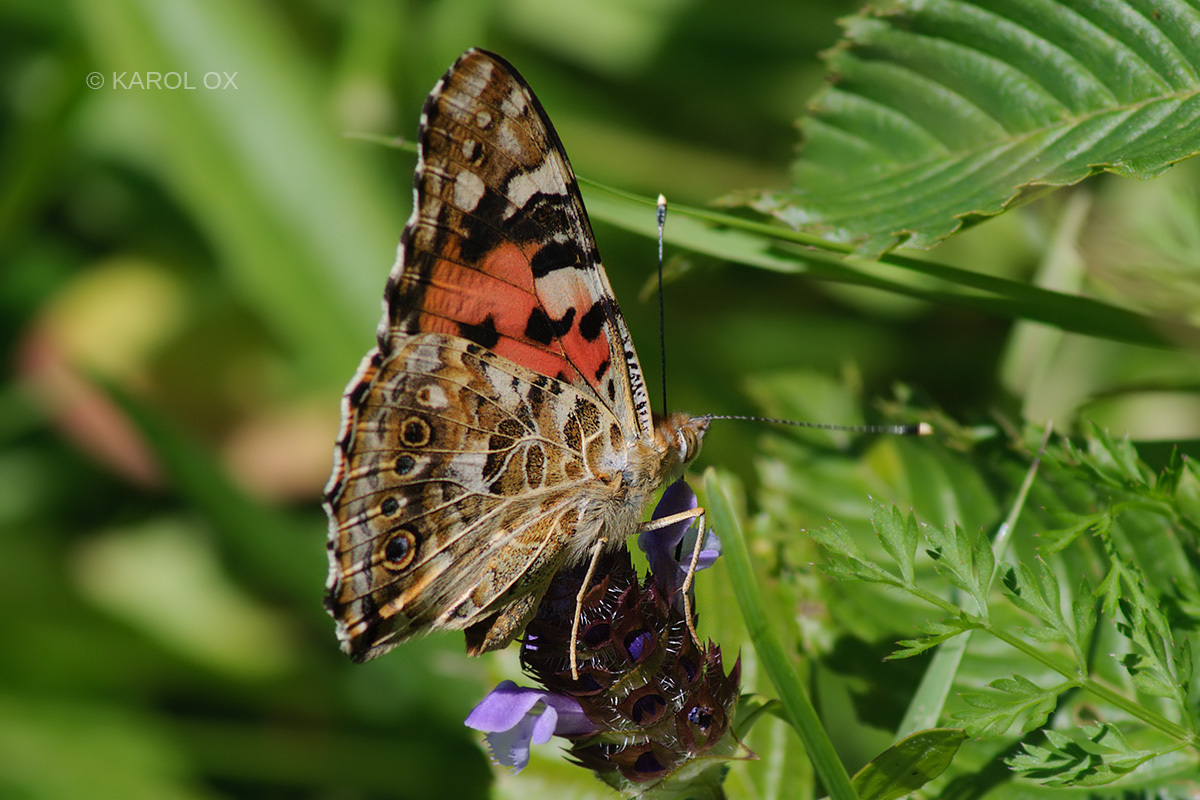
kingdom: Animalia
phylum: Arthropoda
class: Insecta
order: Lepidoptera
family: Nymphalidae
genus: Vanessa
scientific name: Vanessa cardui
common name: Painted lady
